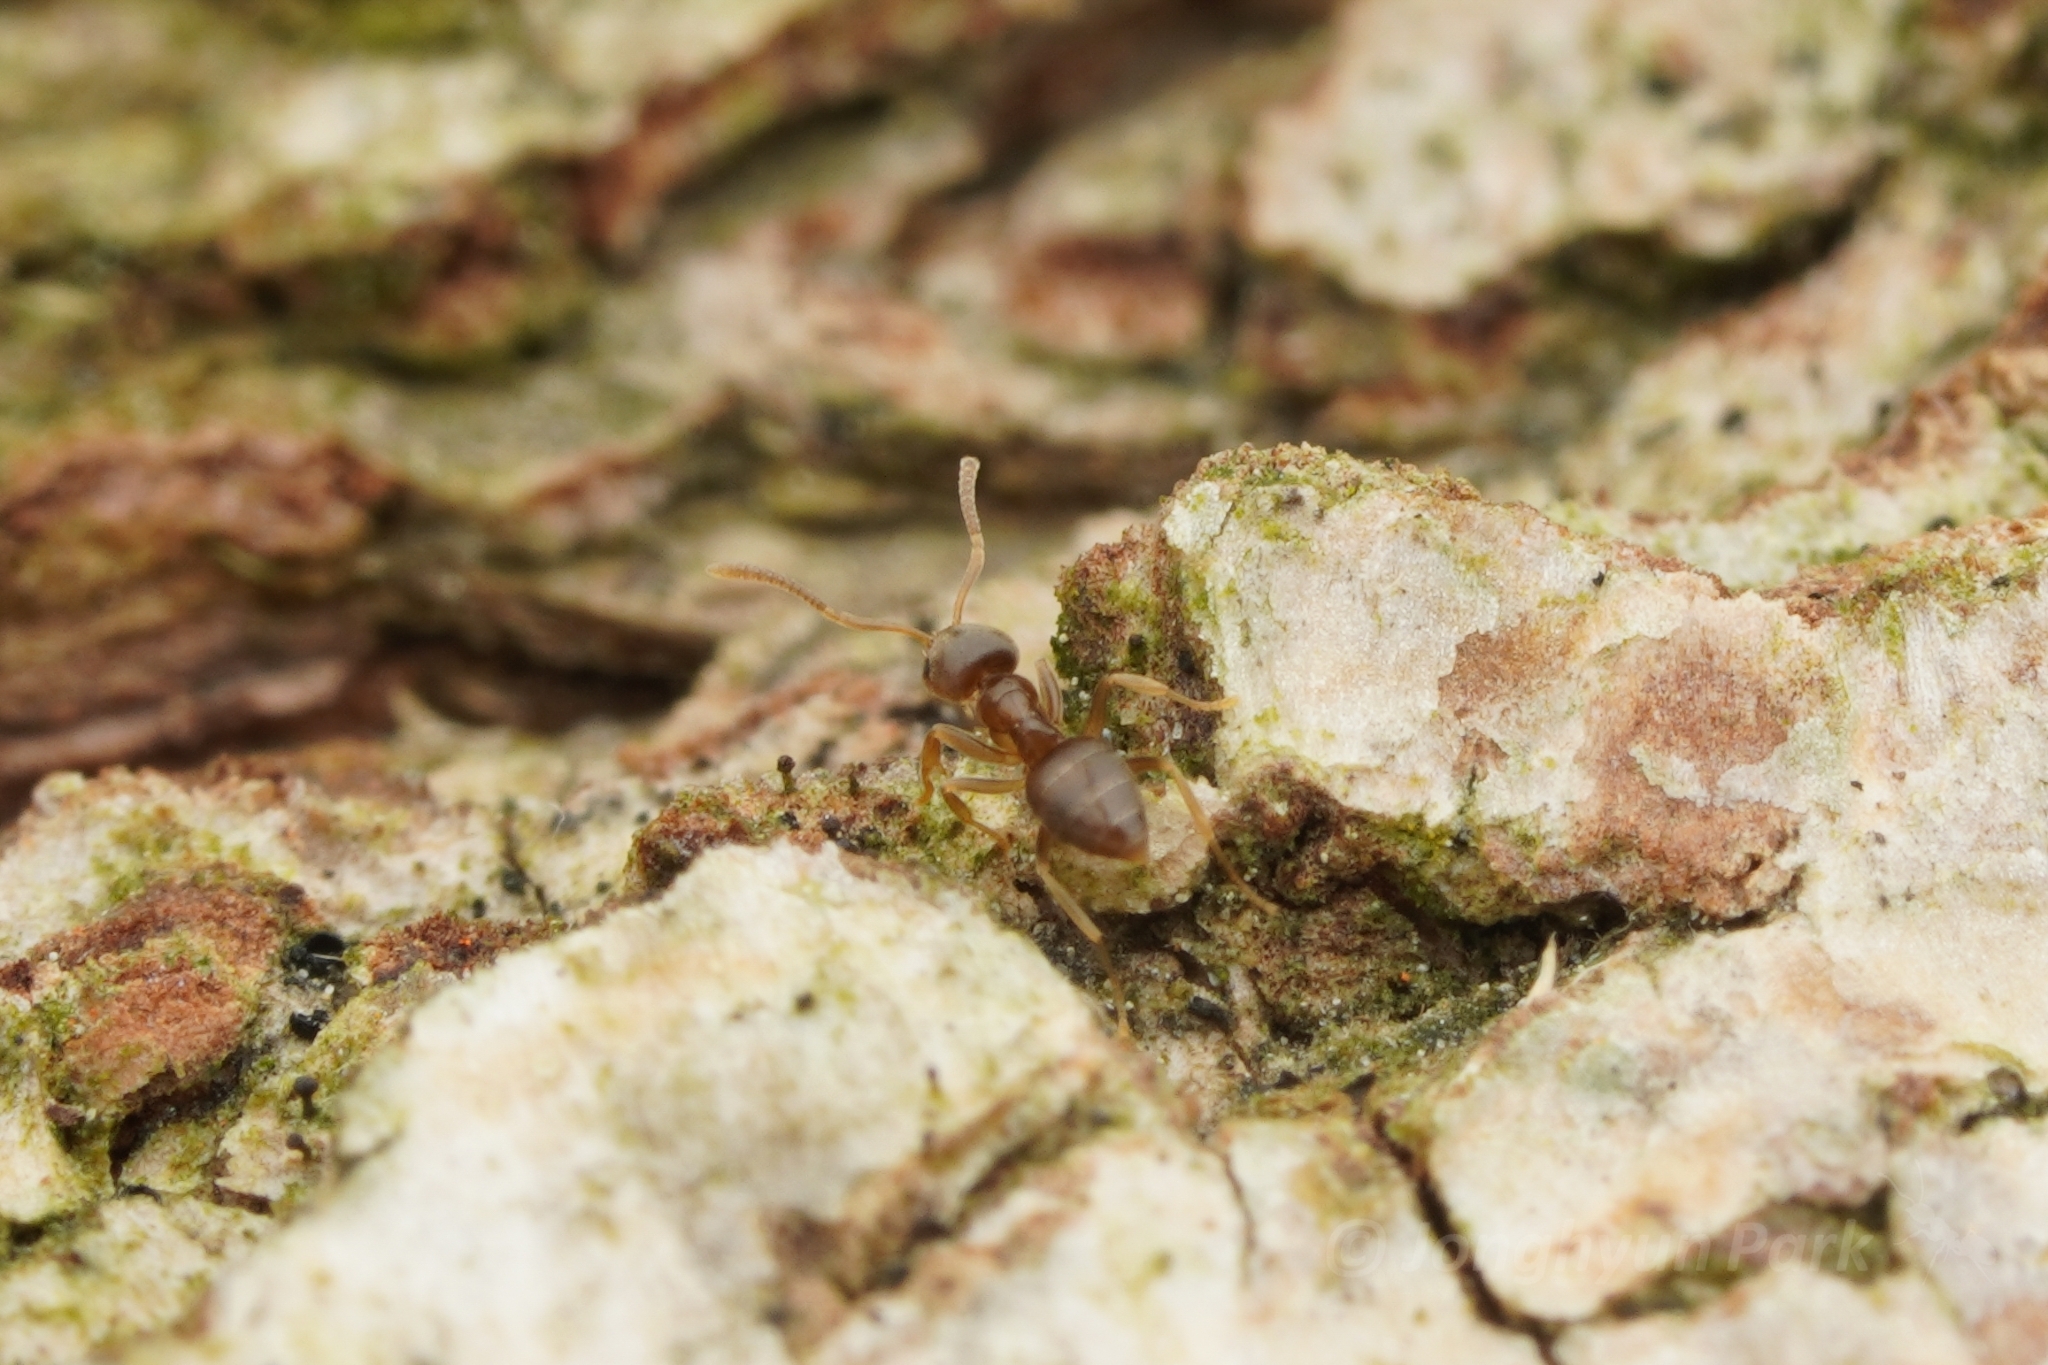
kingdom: Animalia
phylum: Arthropoda
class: Insecta
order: Hymenoptera
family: Formicidae
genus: Paraparatrechina
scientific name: Paraparatrechina
